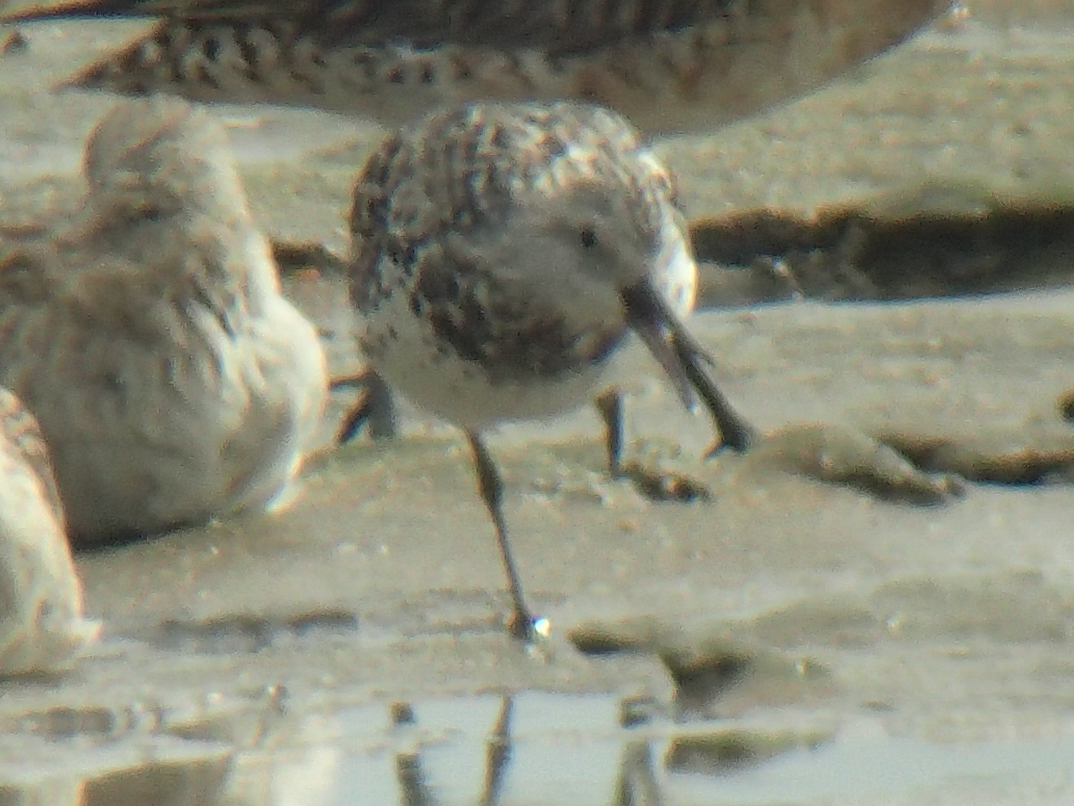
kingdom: Animalia
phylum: Chordata
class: Aves
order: Charadriiformes
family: Scolopacidae
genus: Calidris
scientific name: Calidris tenuirostris
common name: Great knot
